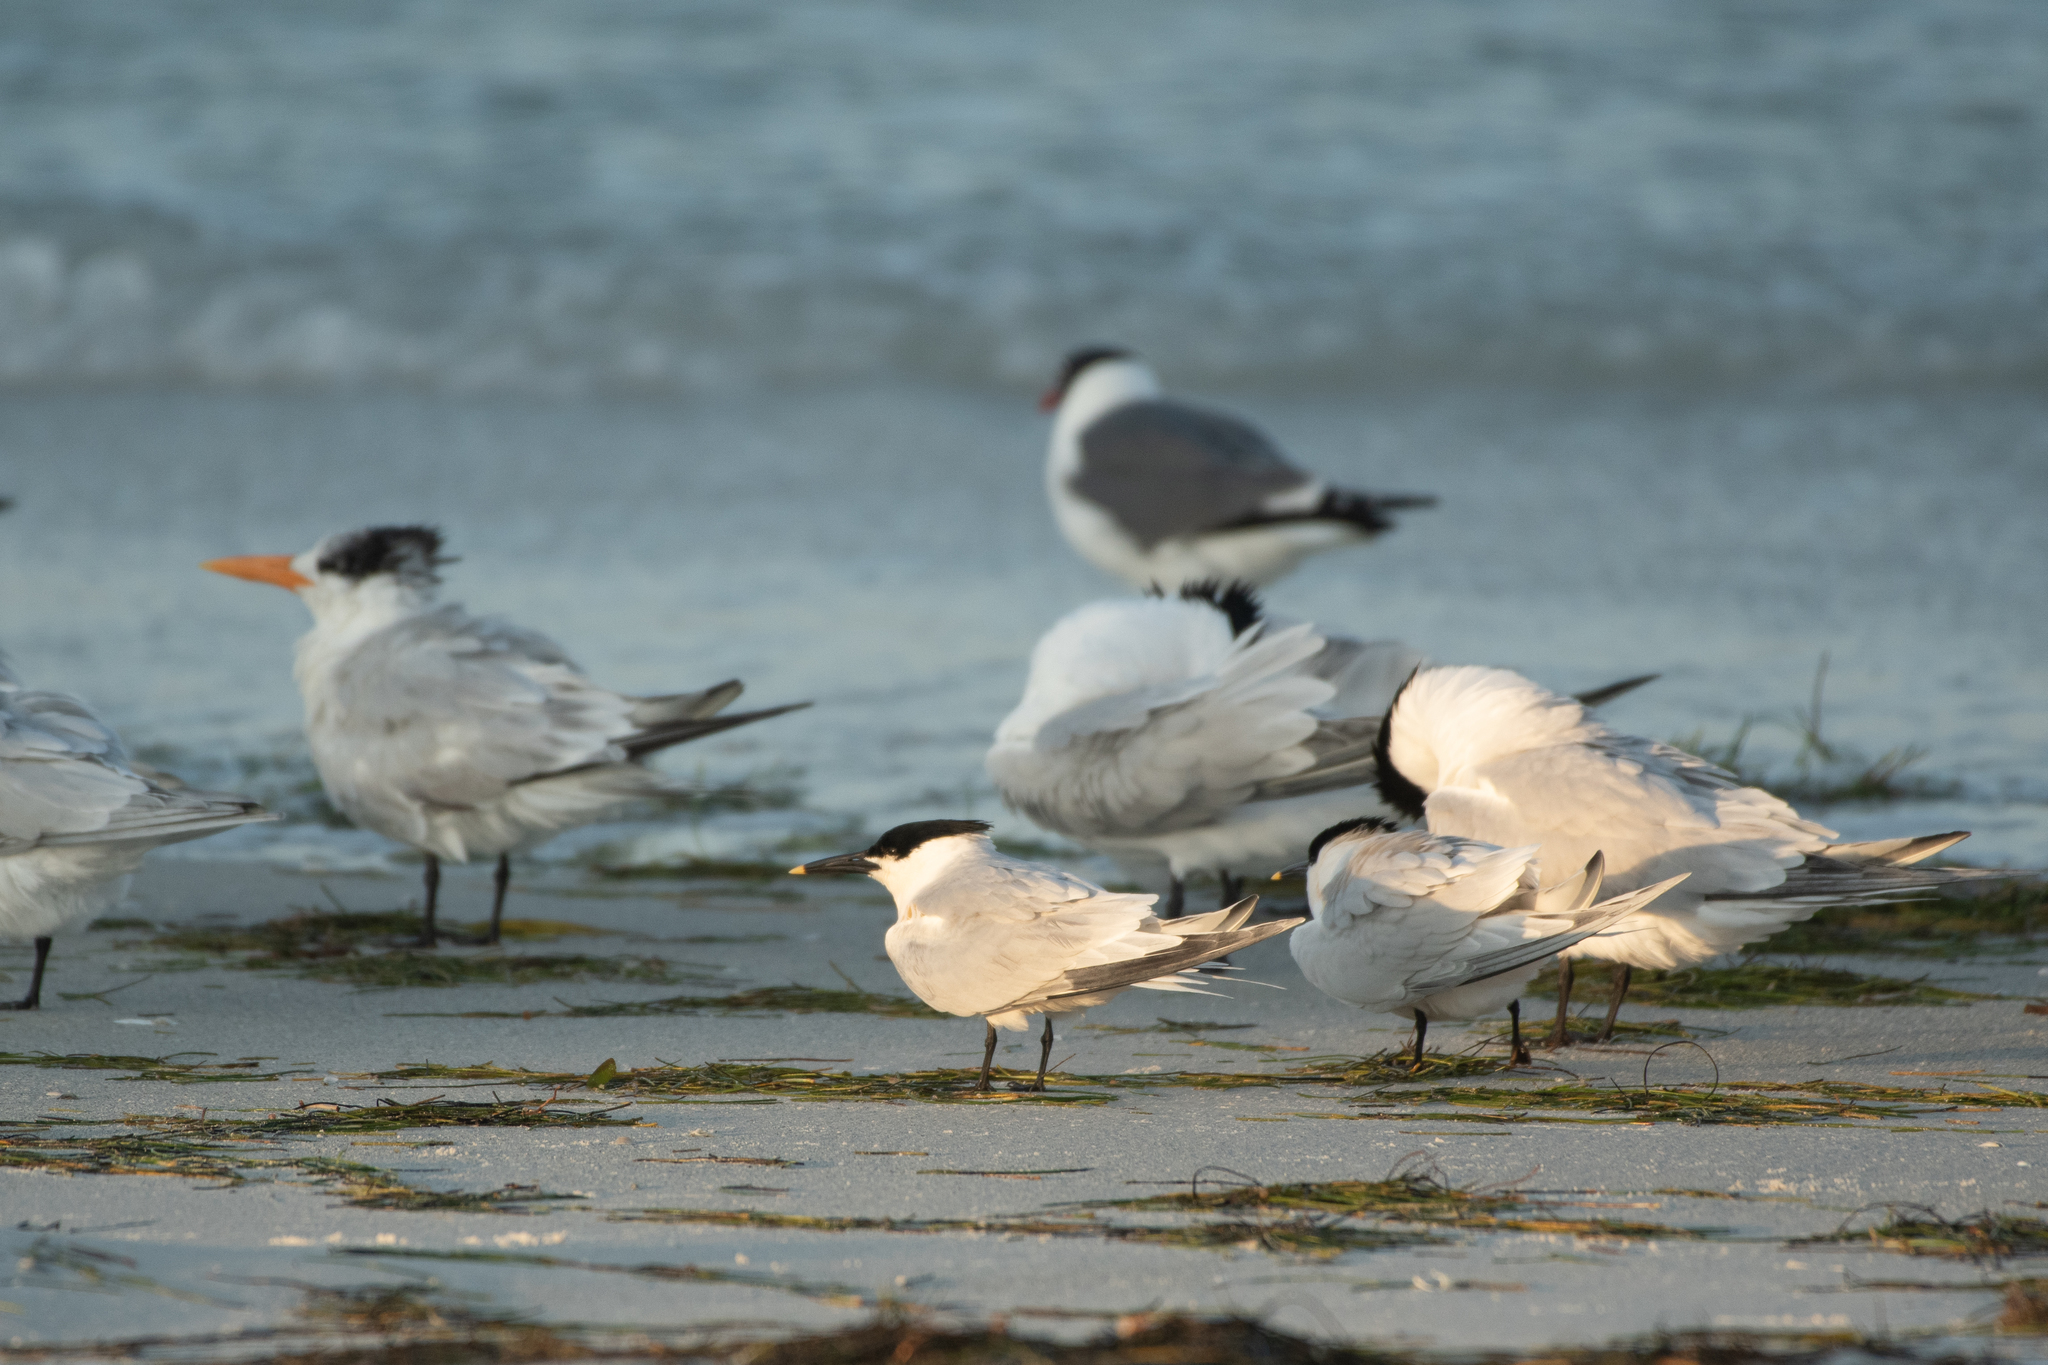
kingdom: Animalia
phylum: Chordata
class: Aves
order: Charadriiformes
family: Laridae
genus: Thalasseus
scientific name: Thalasseus sandvicensis
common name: Sandwich tern
